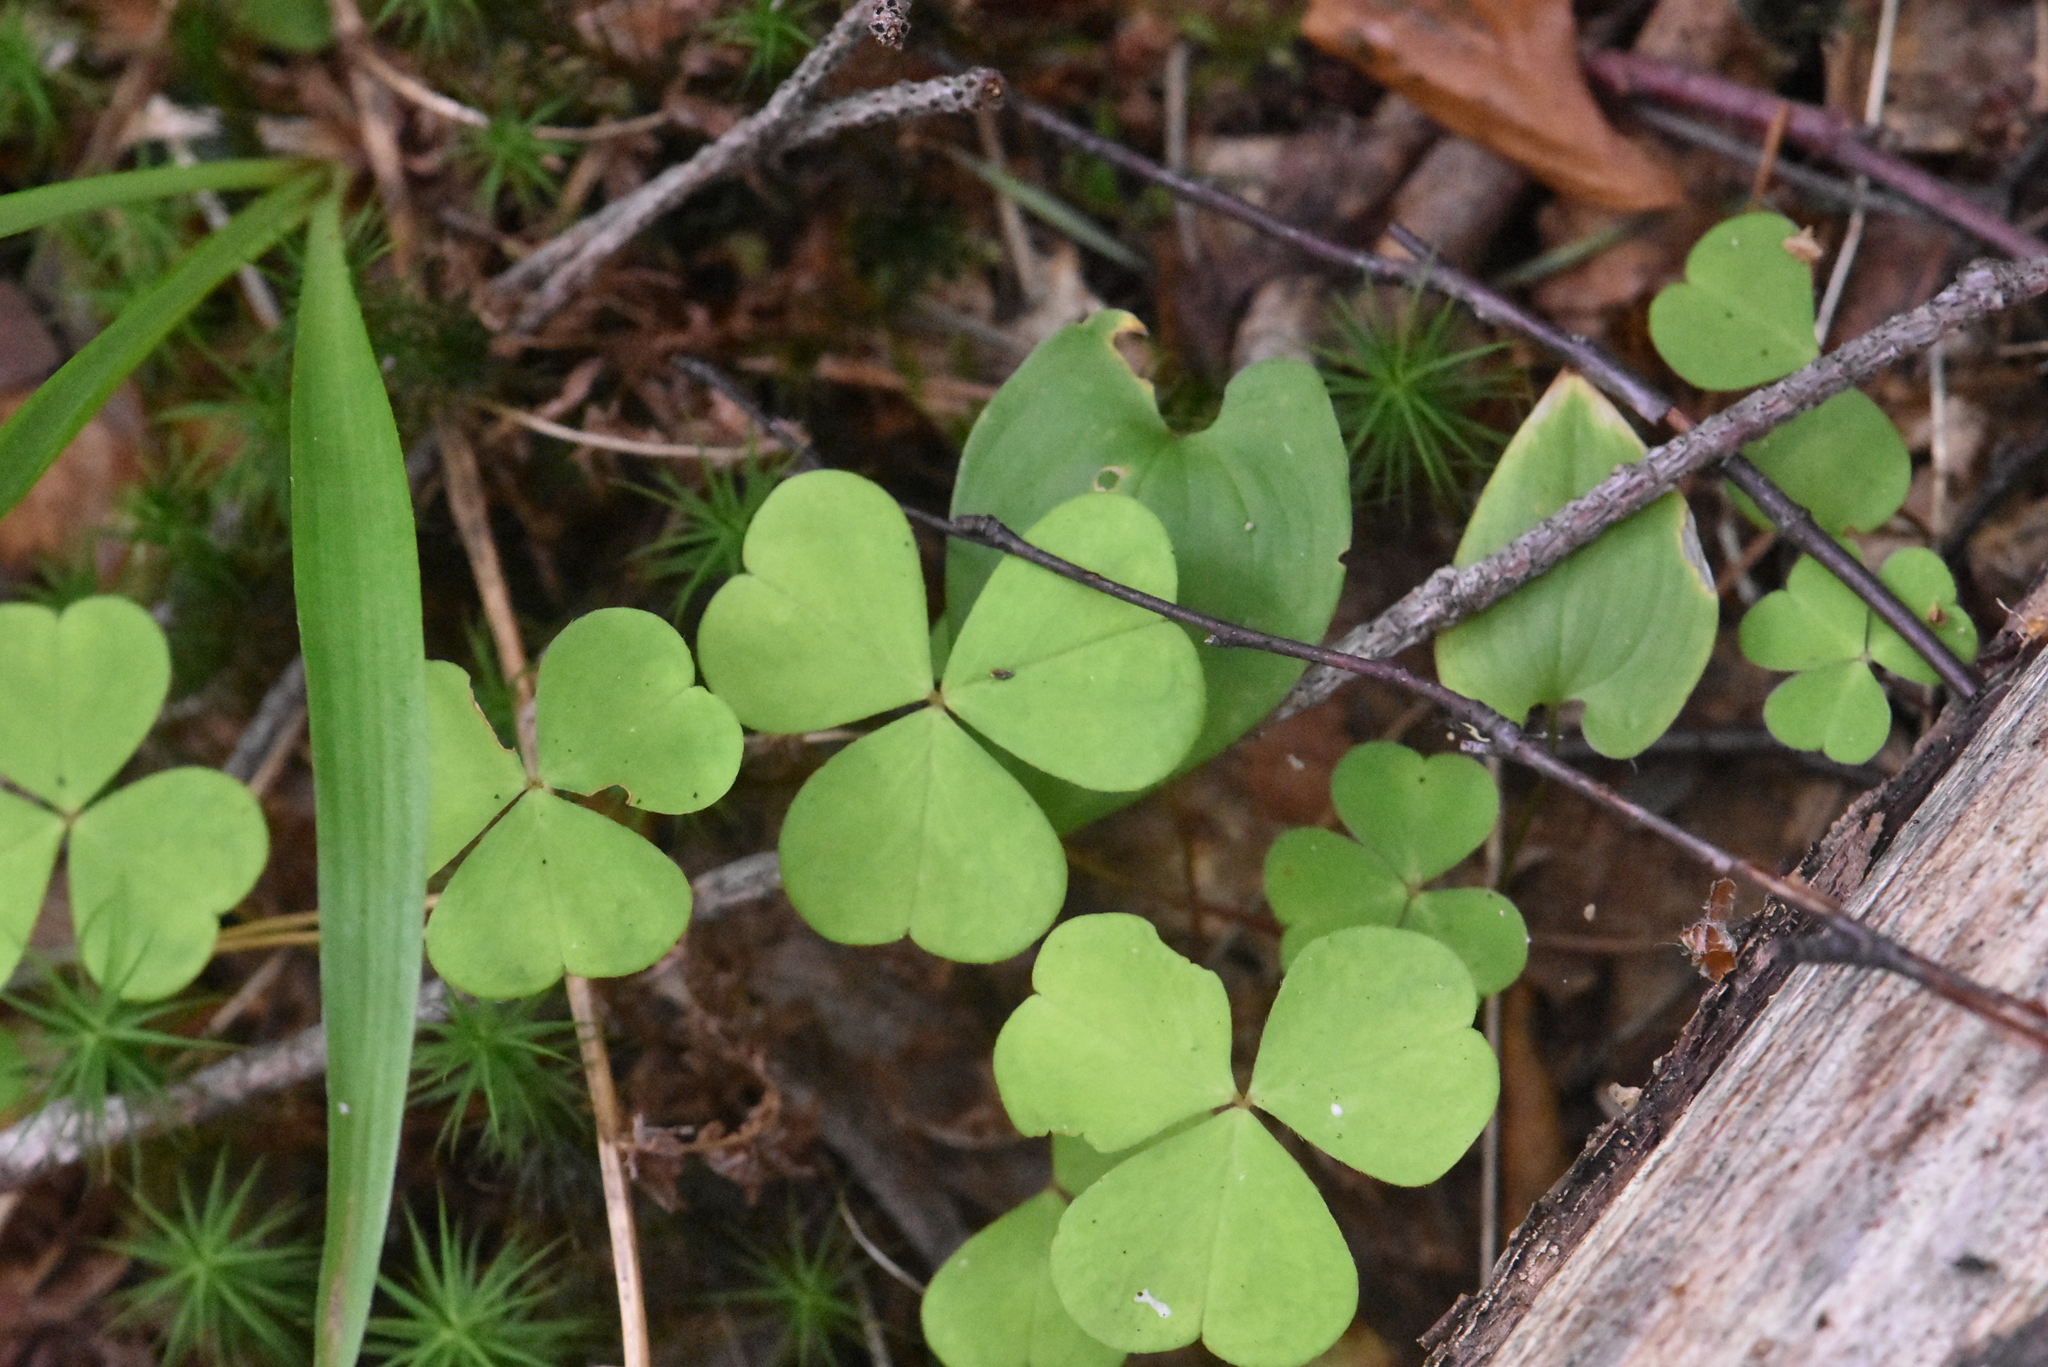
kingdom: Plantae
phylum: Tracheophyta
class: Magnoliopsida
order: Oxalidales
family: Oxalidaceae
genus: Oxalis
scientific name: Oxalis acetosella
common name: Wood-sorrel
